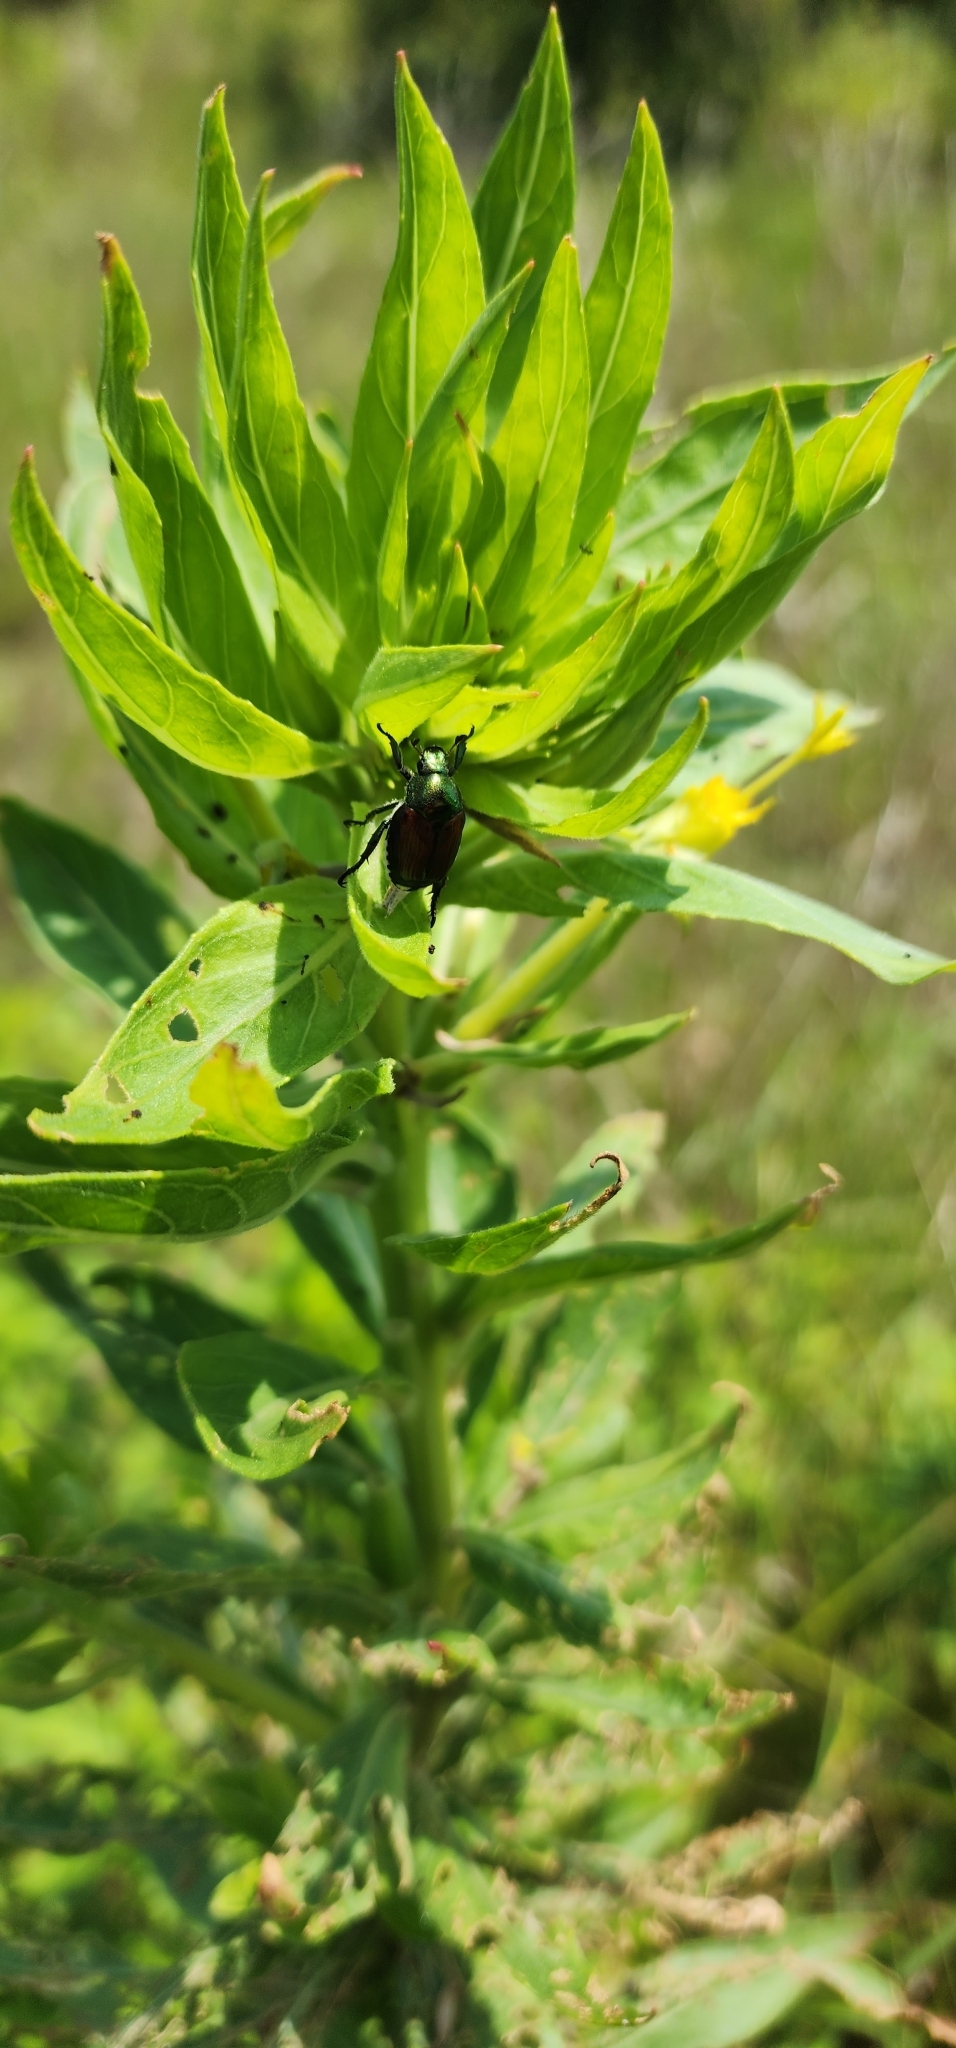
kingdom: Animalia
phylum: Arthropoda
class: Insecta
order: Coleoptera
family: Scarabaeidae
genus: Popillia
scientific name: Popillia japonica
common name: Japanese beetle
